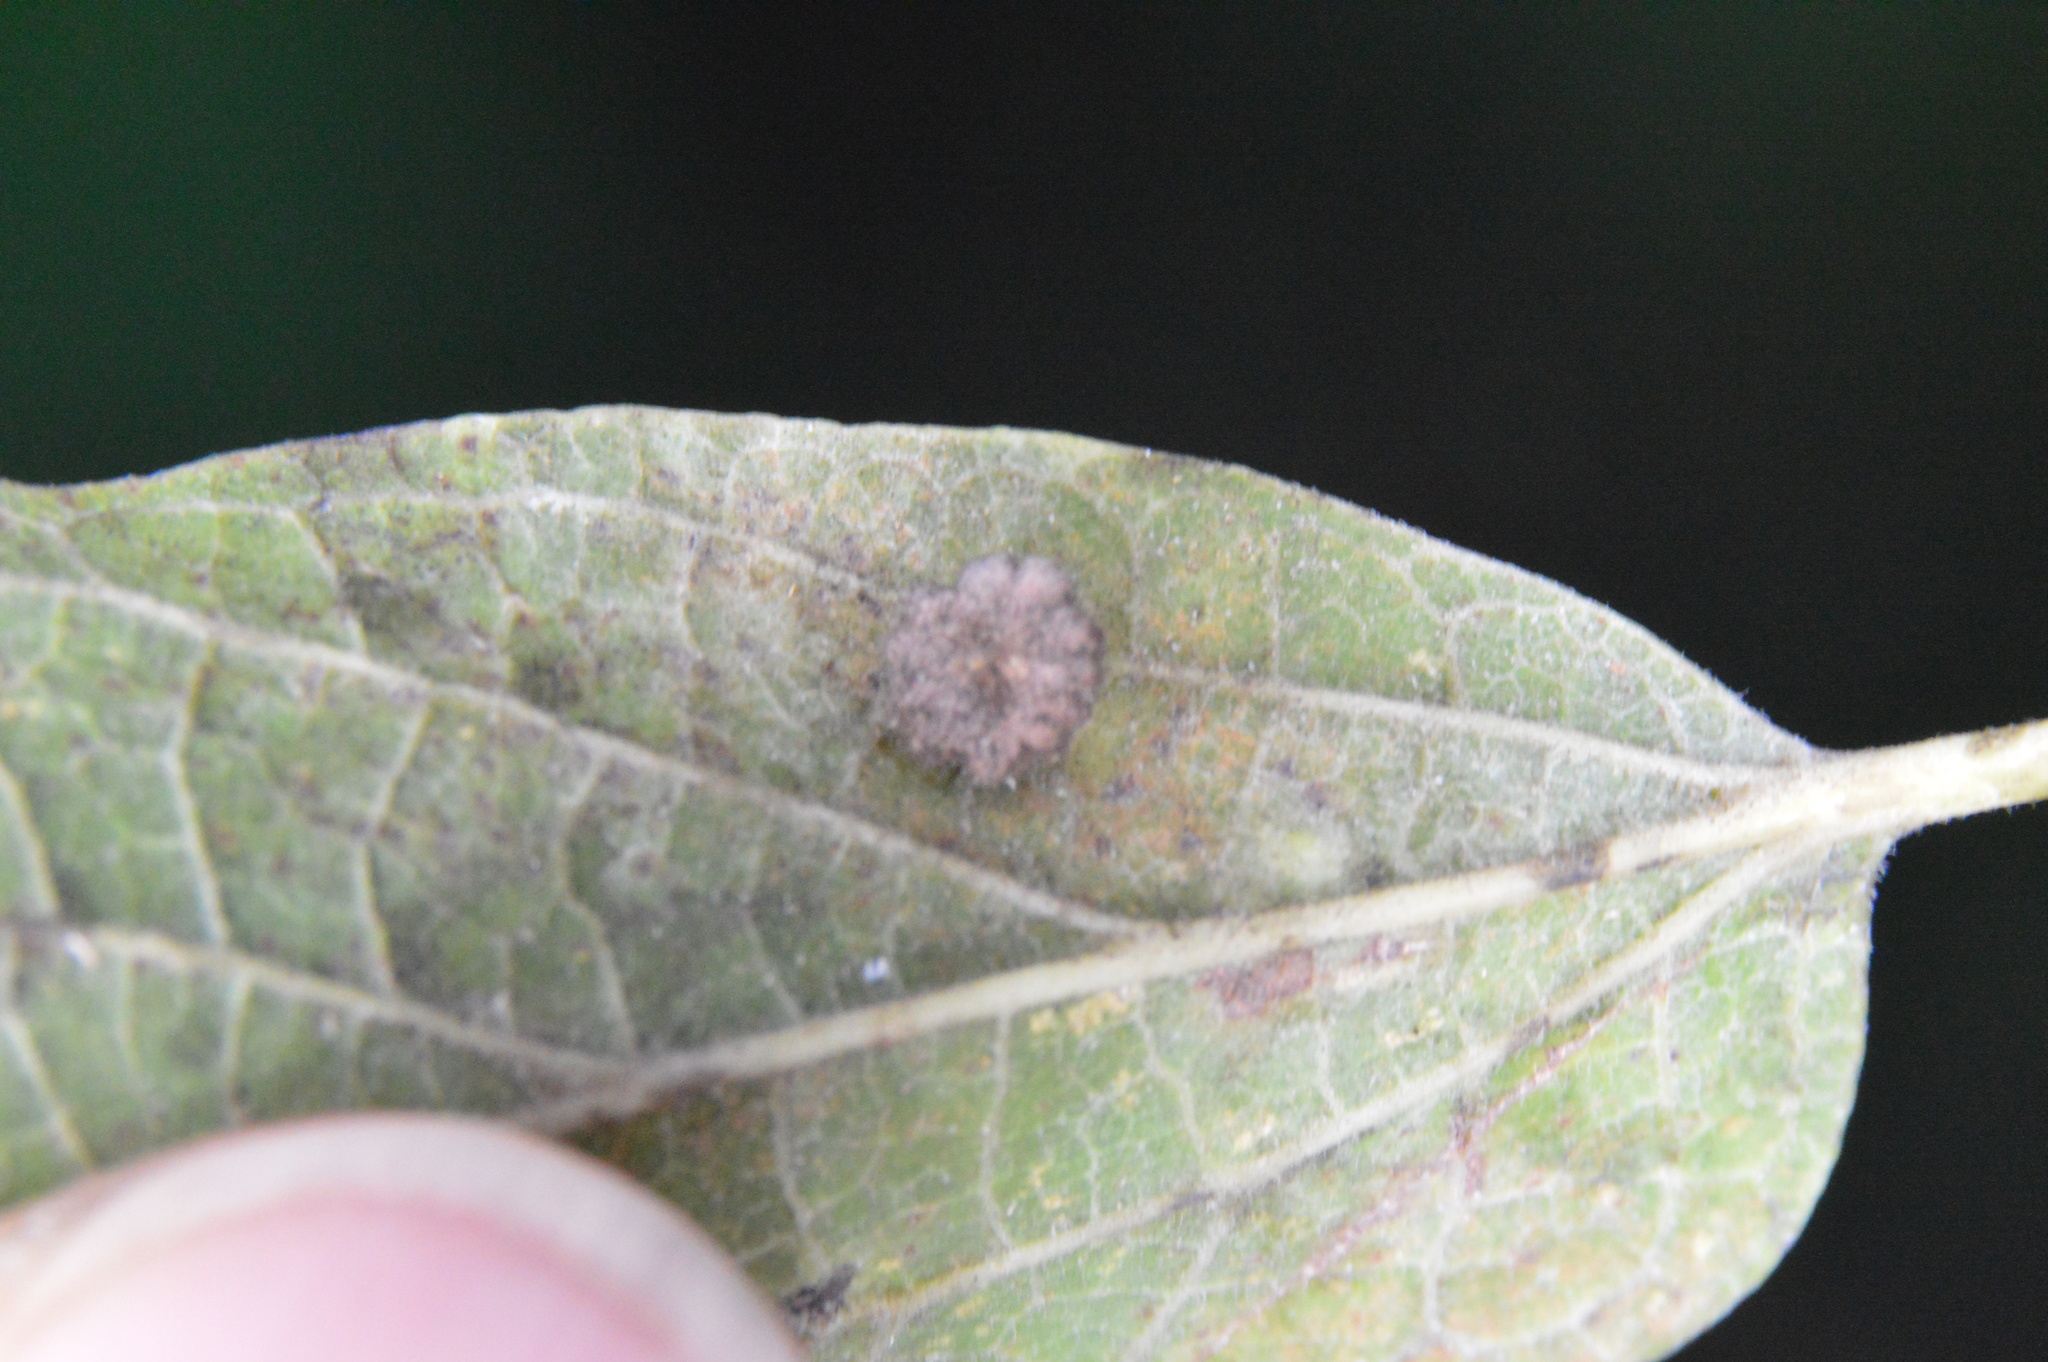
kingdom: Animalia
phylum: Arthropoda
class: Insecta
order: Diptera
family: Cecidomyiidae
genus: Celticecis
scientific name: Celticecis capsularis
